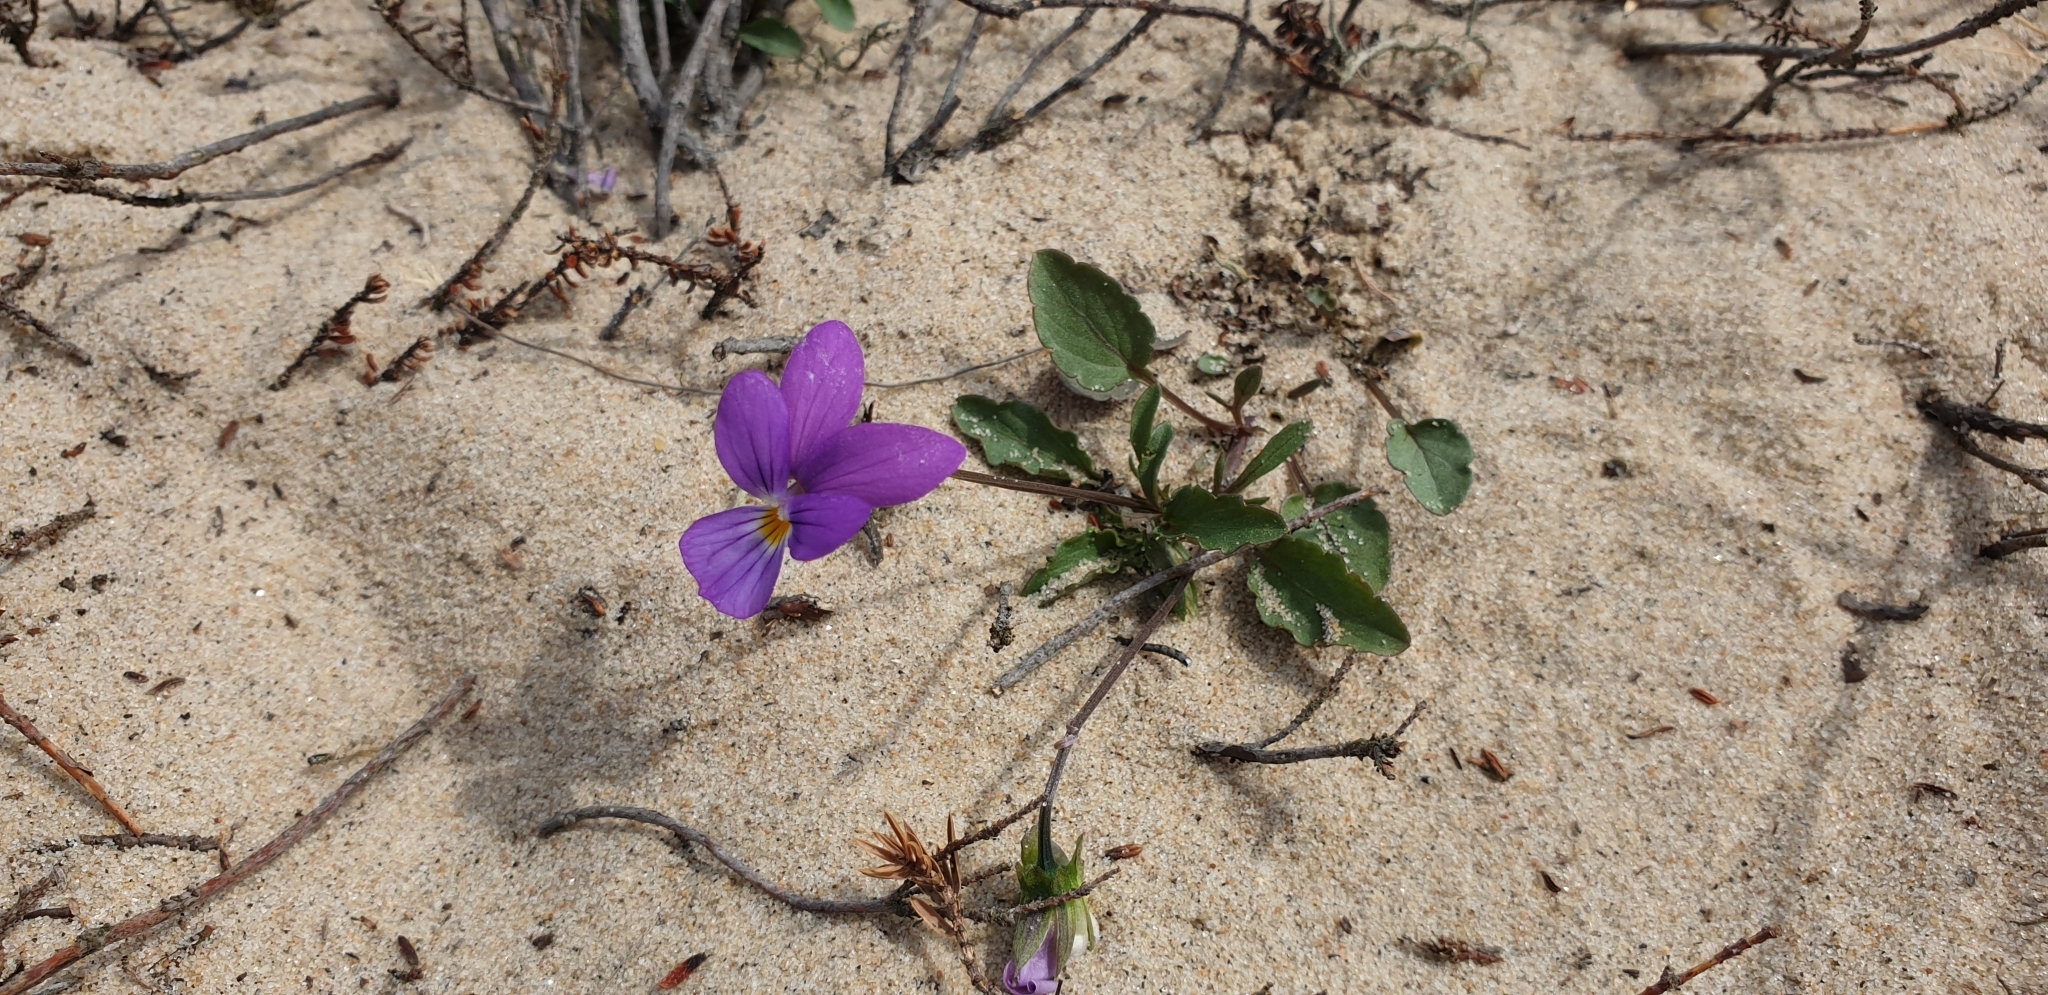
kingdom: Plantae
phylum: Tracheophyta
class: Magnoliopsida
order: Malpighiales
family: Violaceae
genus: Viola
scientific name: Viola tricolor
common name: Pansy
